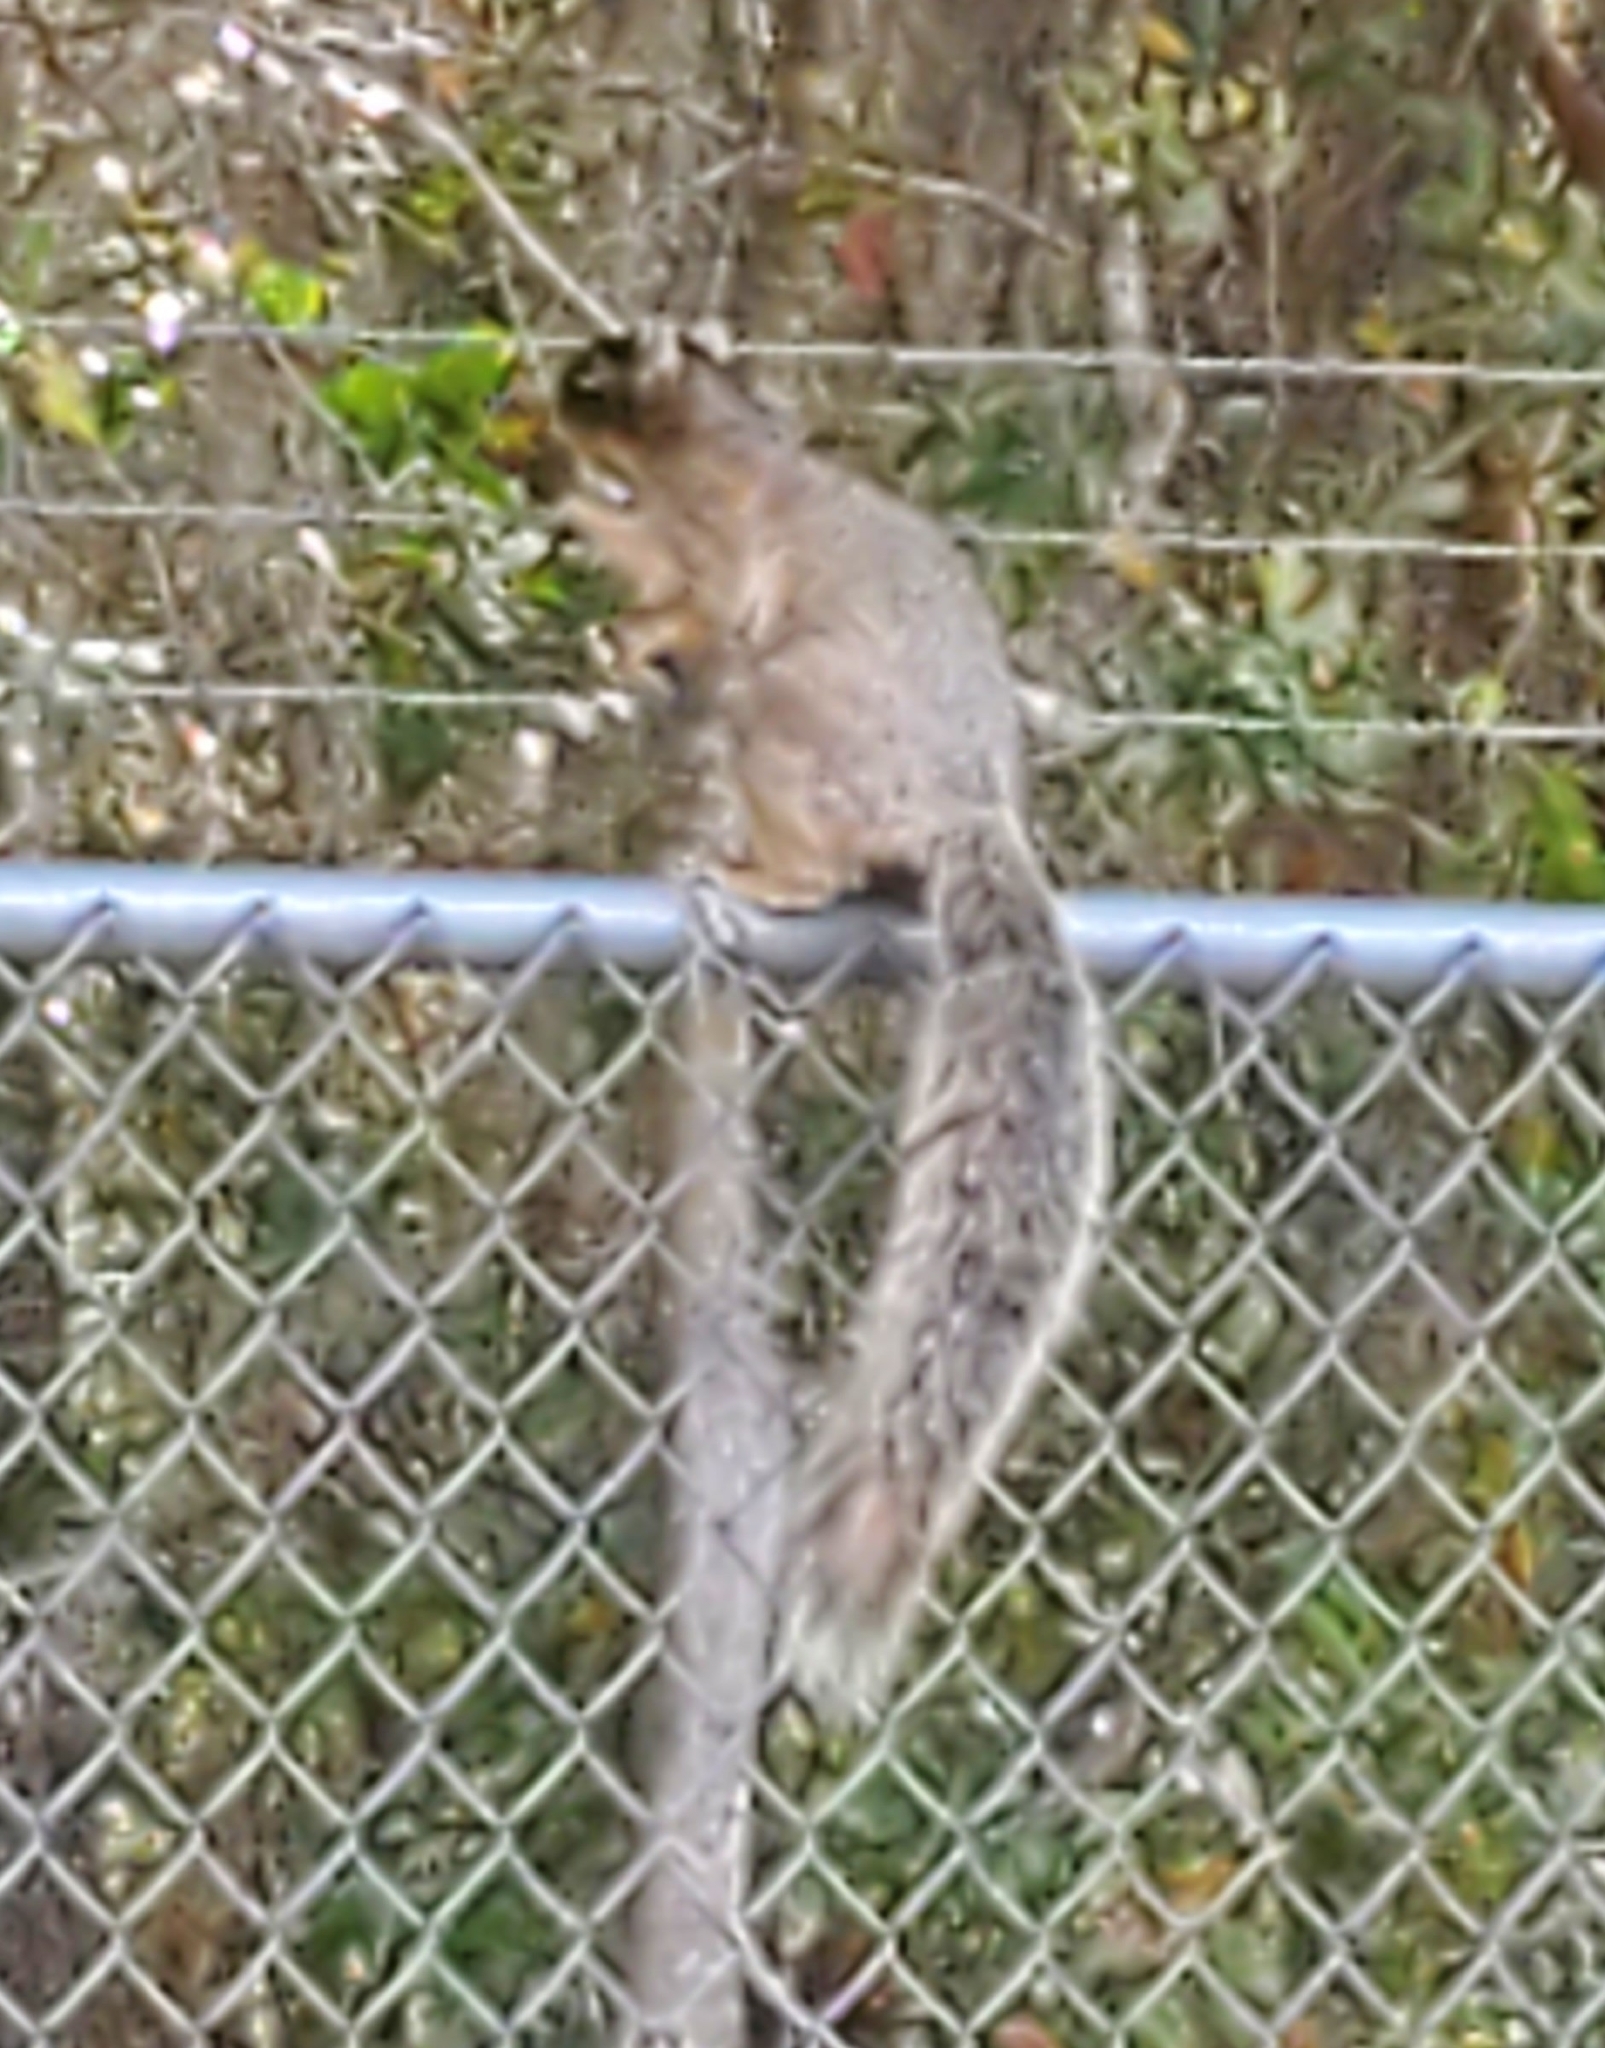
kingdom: Animalia
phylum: Chordata
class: Mammalia
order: Rodentia
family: Sciuridae
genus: Sciurus
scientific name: Sciurus niger
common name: Fox squirrel
